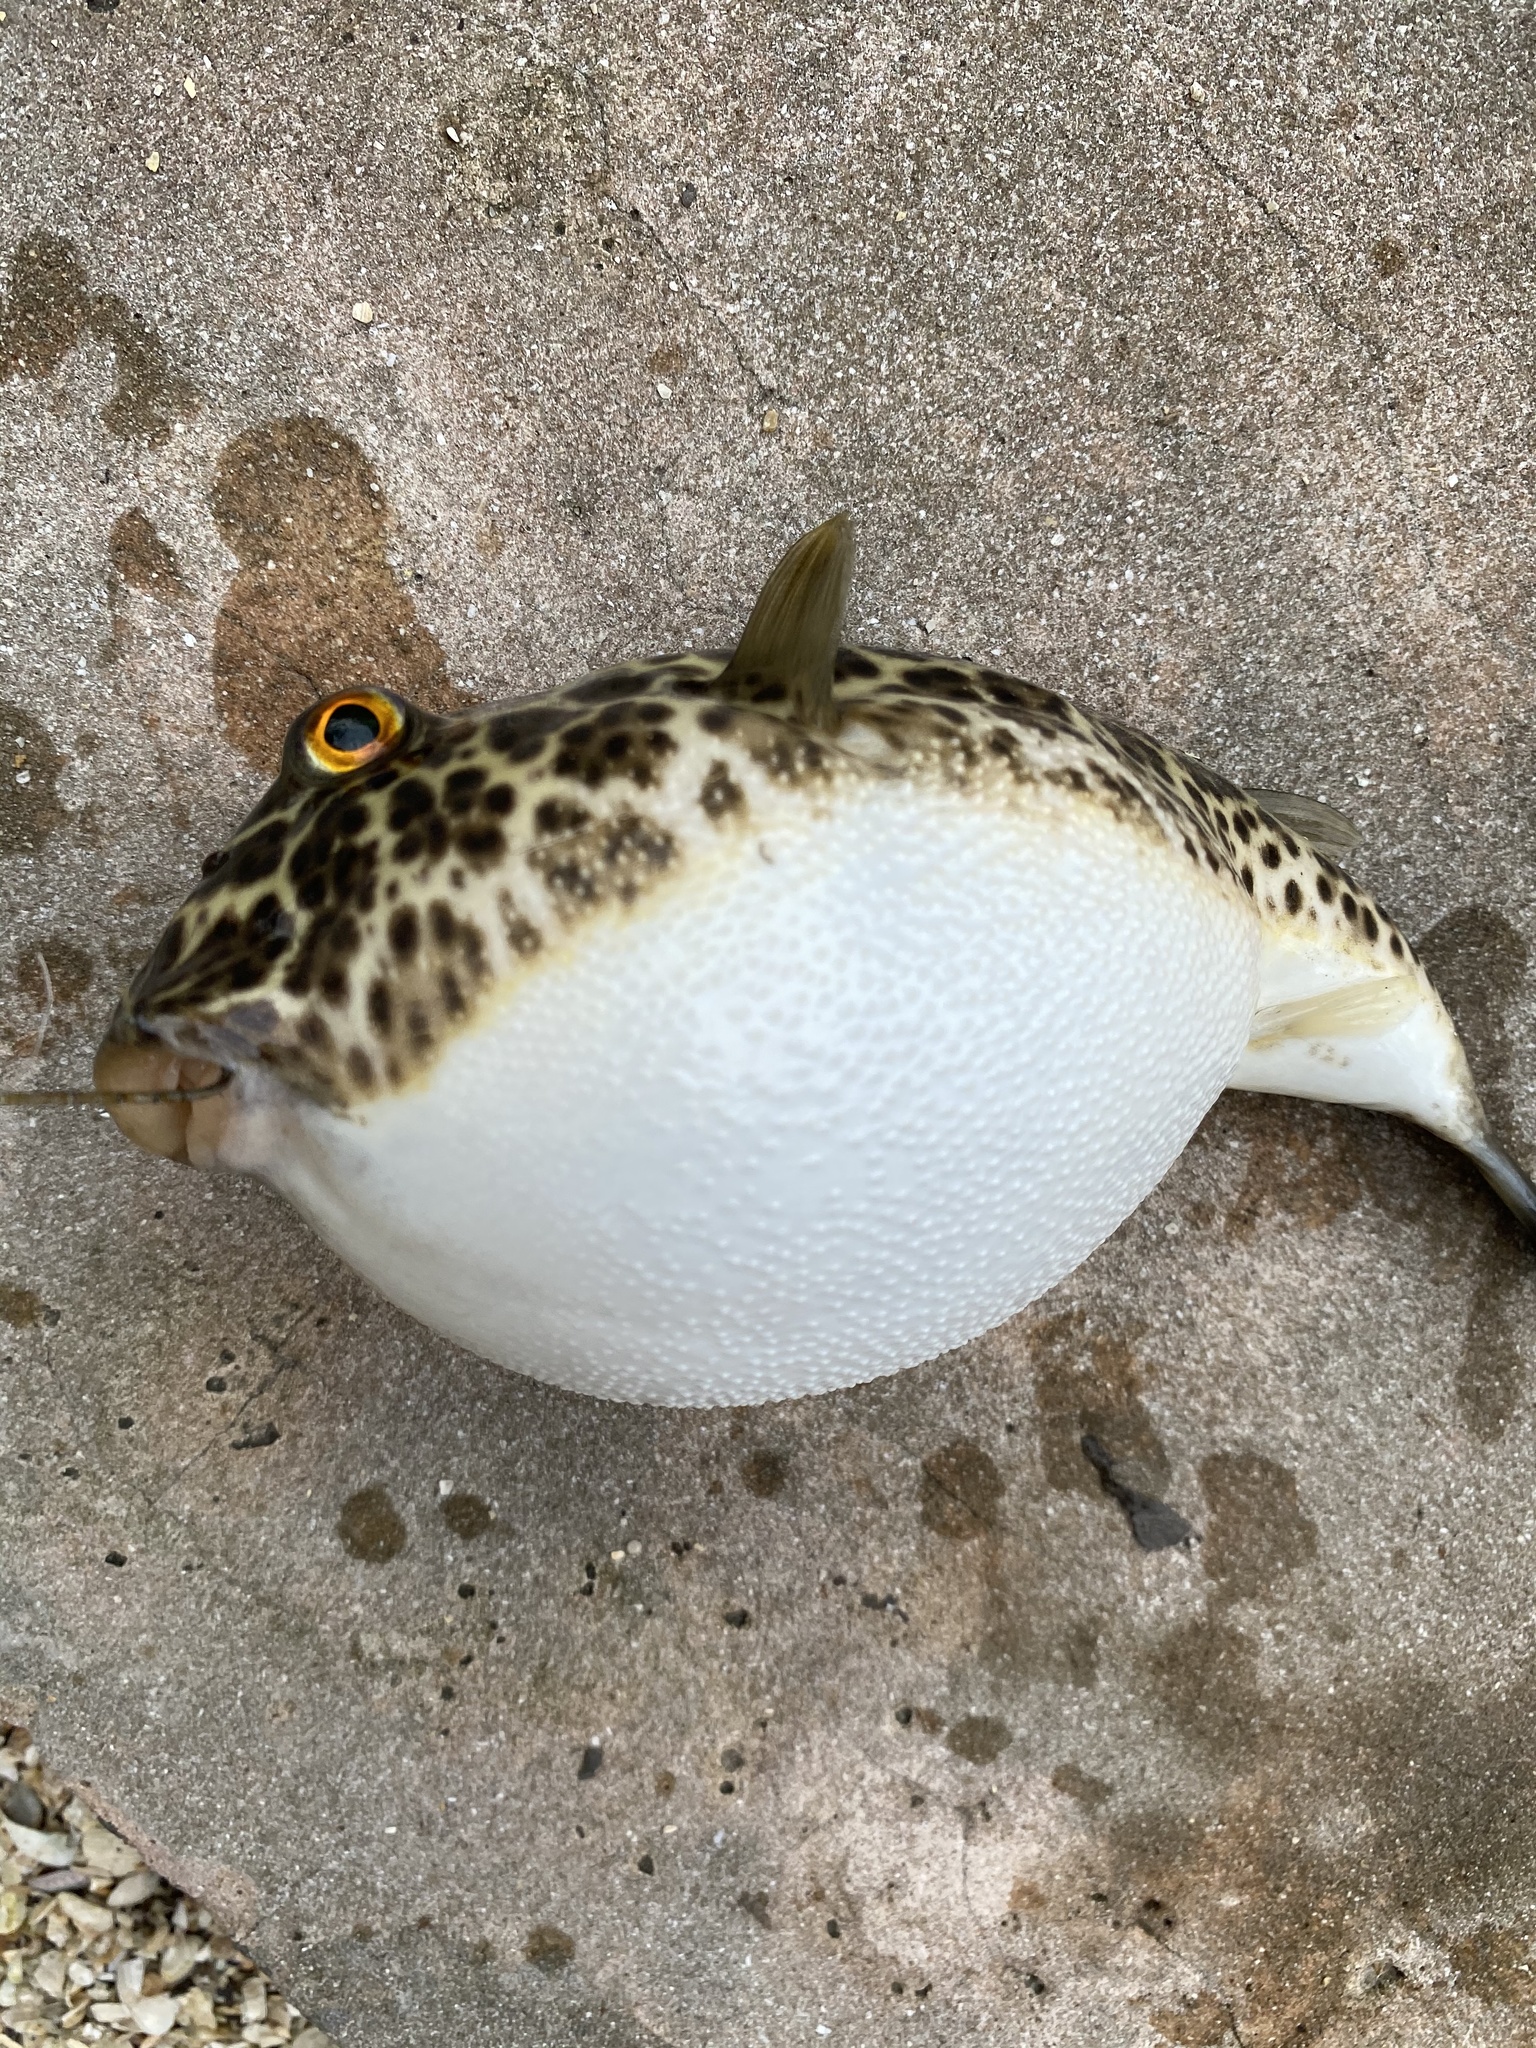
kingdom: Animalia
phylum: Chordata
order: Tetraodontiformes
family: Tetraodontidae
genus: Sphoeroides
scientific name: Sphoeroides testudineus
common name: Checkered puffer
